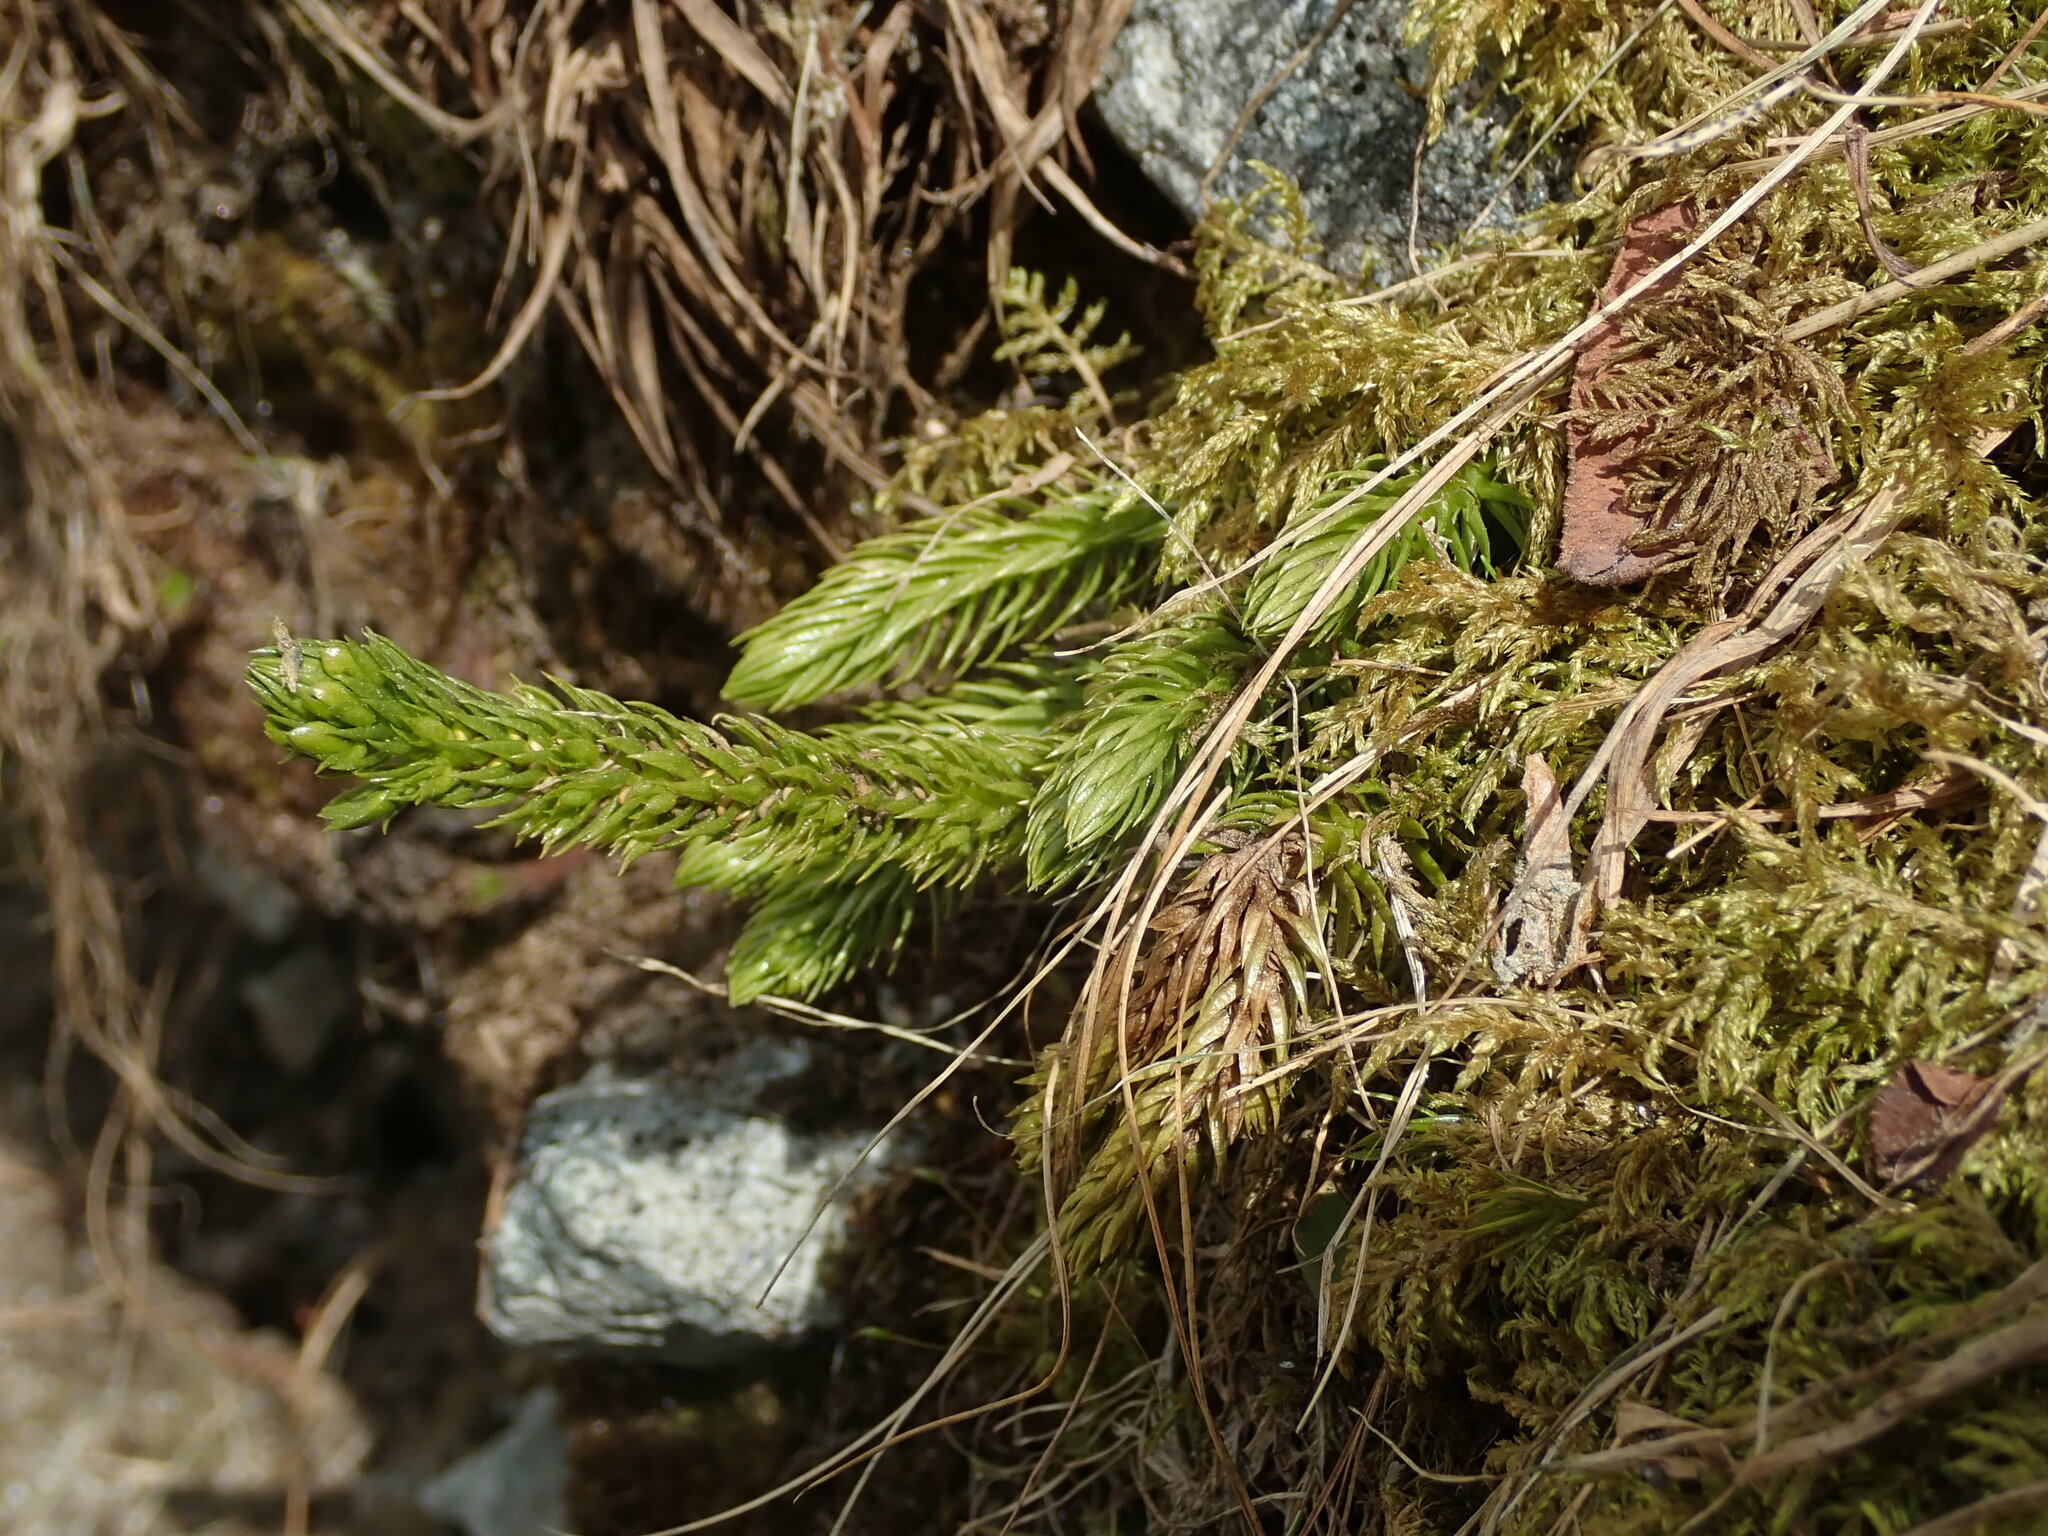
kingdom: Plantae
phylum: Tracheophyta
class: Lycopodiopsida
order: Lycopodiales
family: Lycopodiaceae
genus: Huperzia
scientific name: Huperzia selago
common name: Northern firmoss
